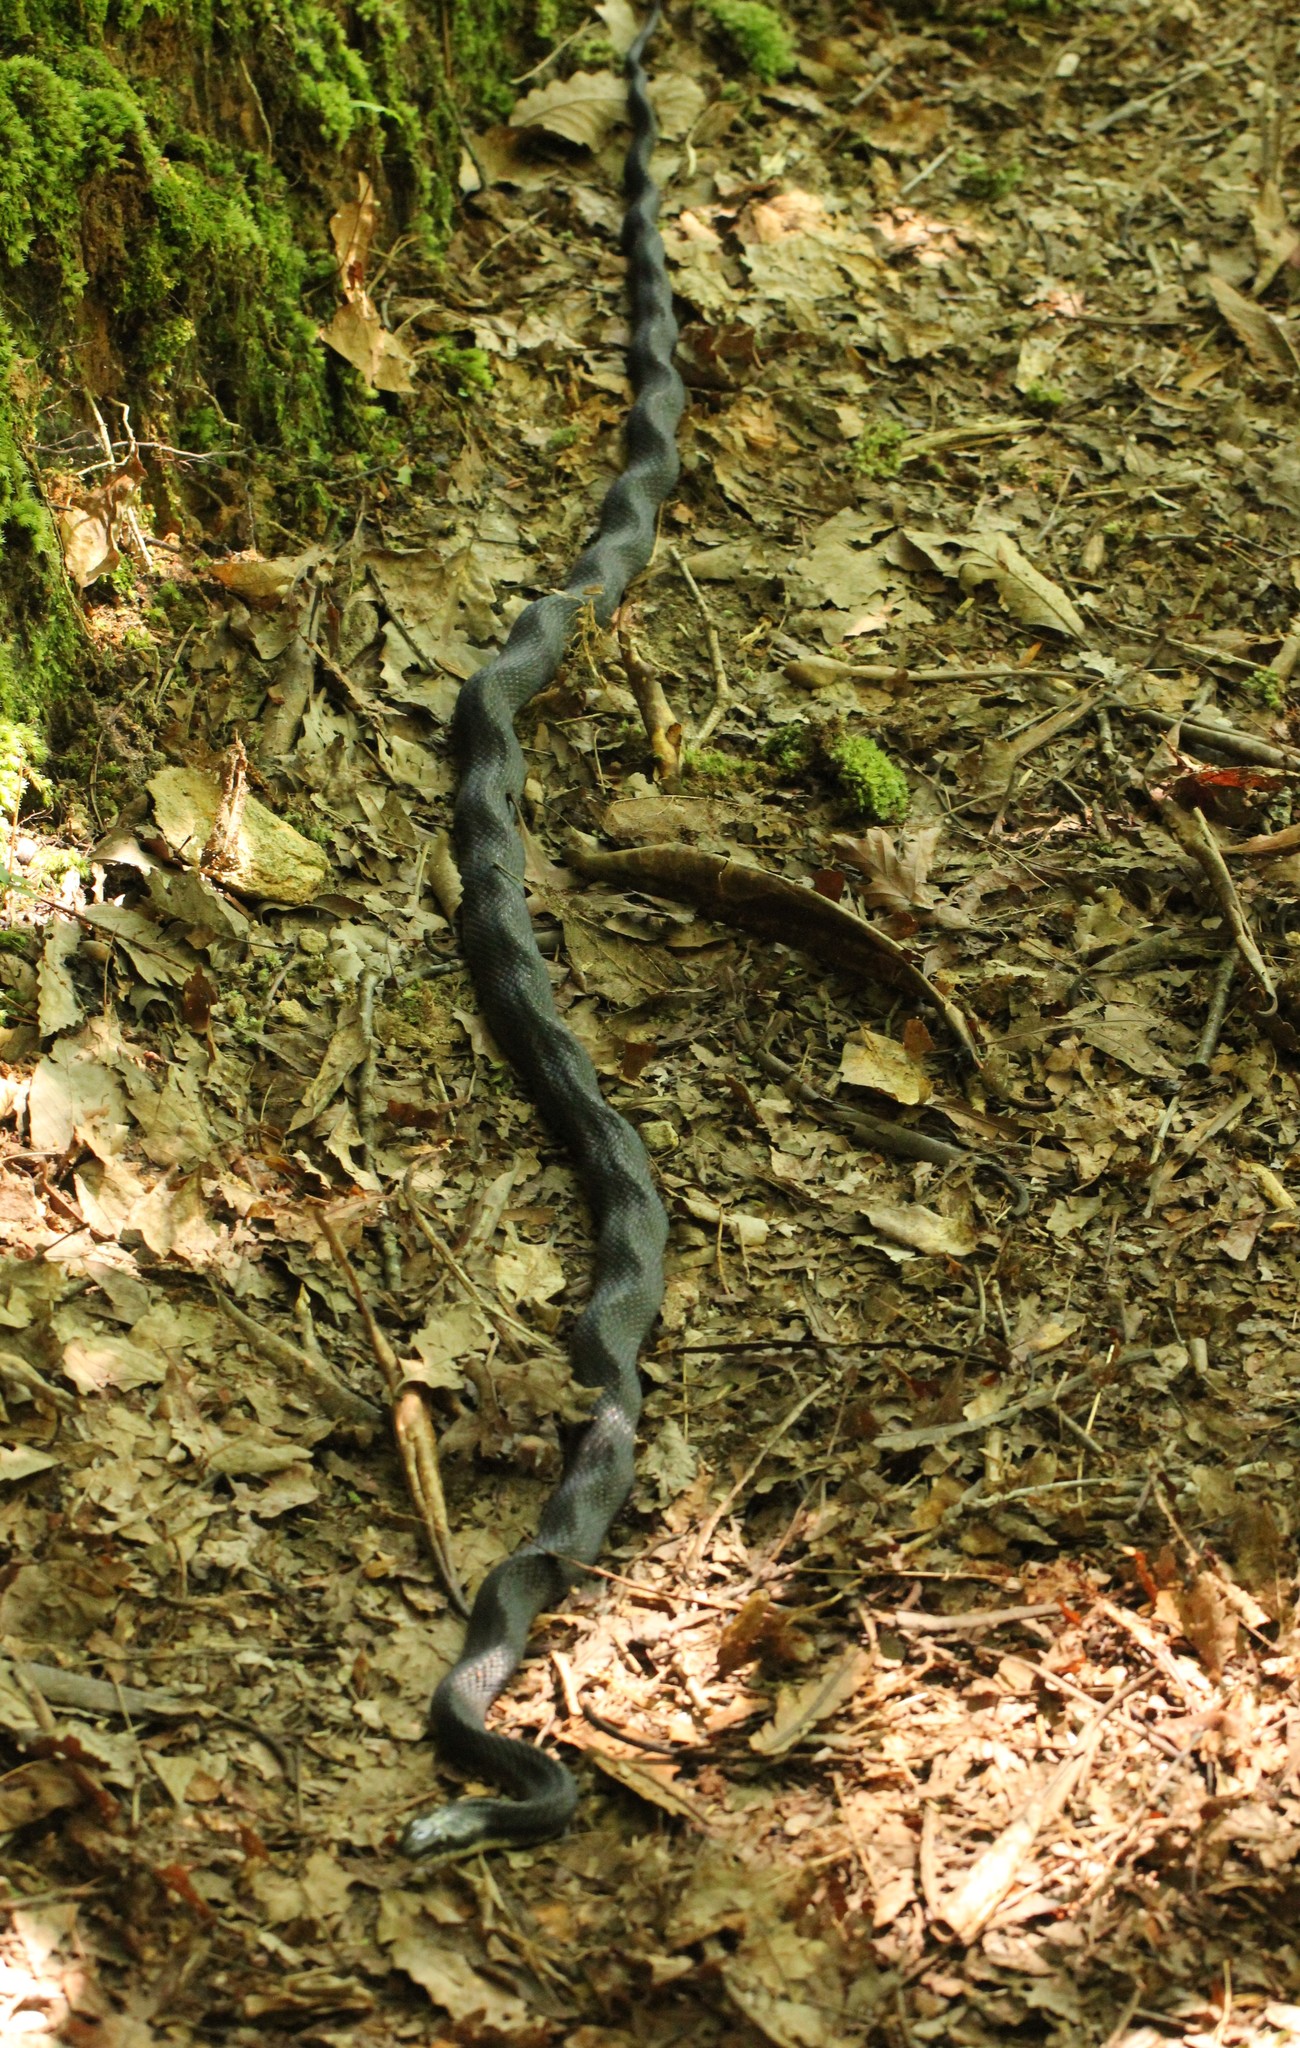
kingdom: Animalia
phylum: Chordata
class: Squamata
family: Colubridae
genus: Pantherophis
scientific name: Pantherophis alleghaniensis
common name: Eastern rat snake
